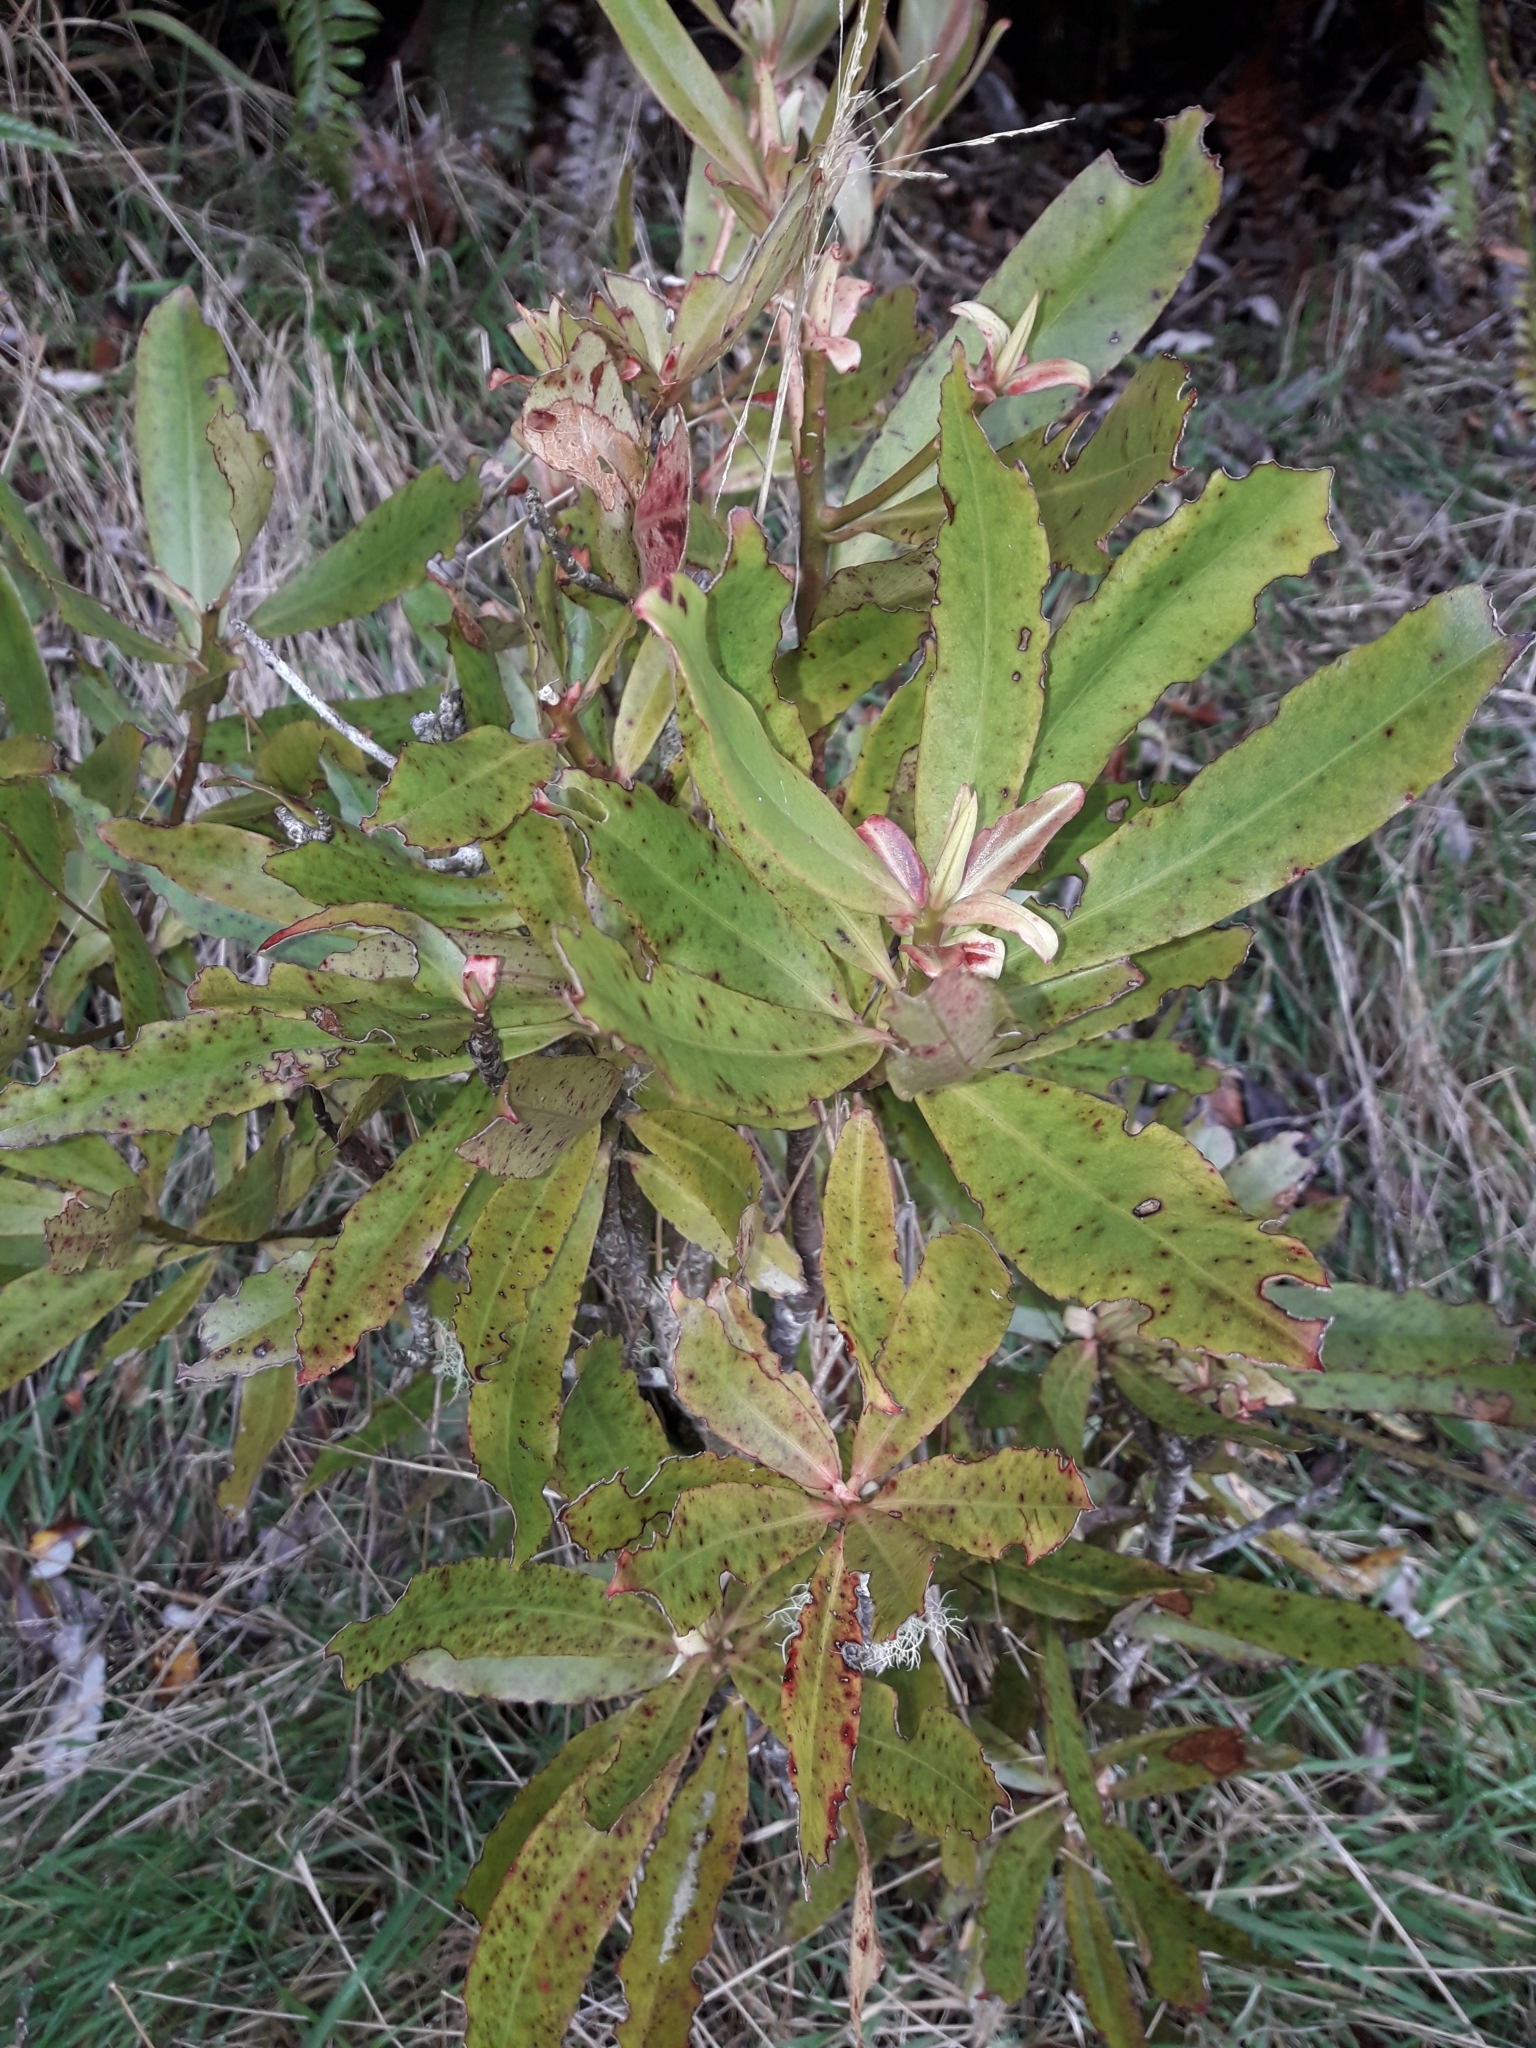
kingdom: Plantae
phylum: Tracheophyta
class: Magnoliopsida
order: Ericales
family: Primulaceae
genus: Myrsine
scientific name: Myrsine salicina
